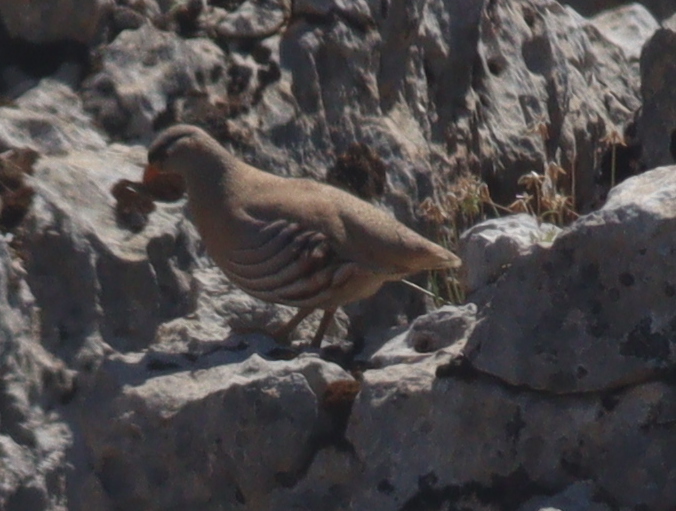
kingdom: Animalia
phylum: Chordata
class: Aves
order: Galliformes
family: Phasianidae
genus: Ammoperdix
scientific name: Ammoperdix griseogularis
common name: See-see partridge
